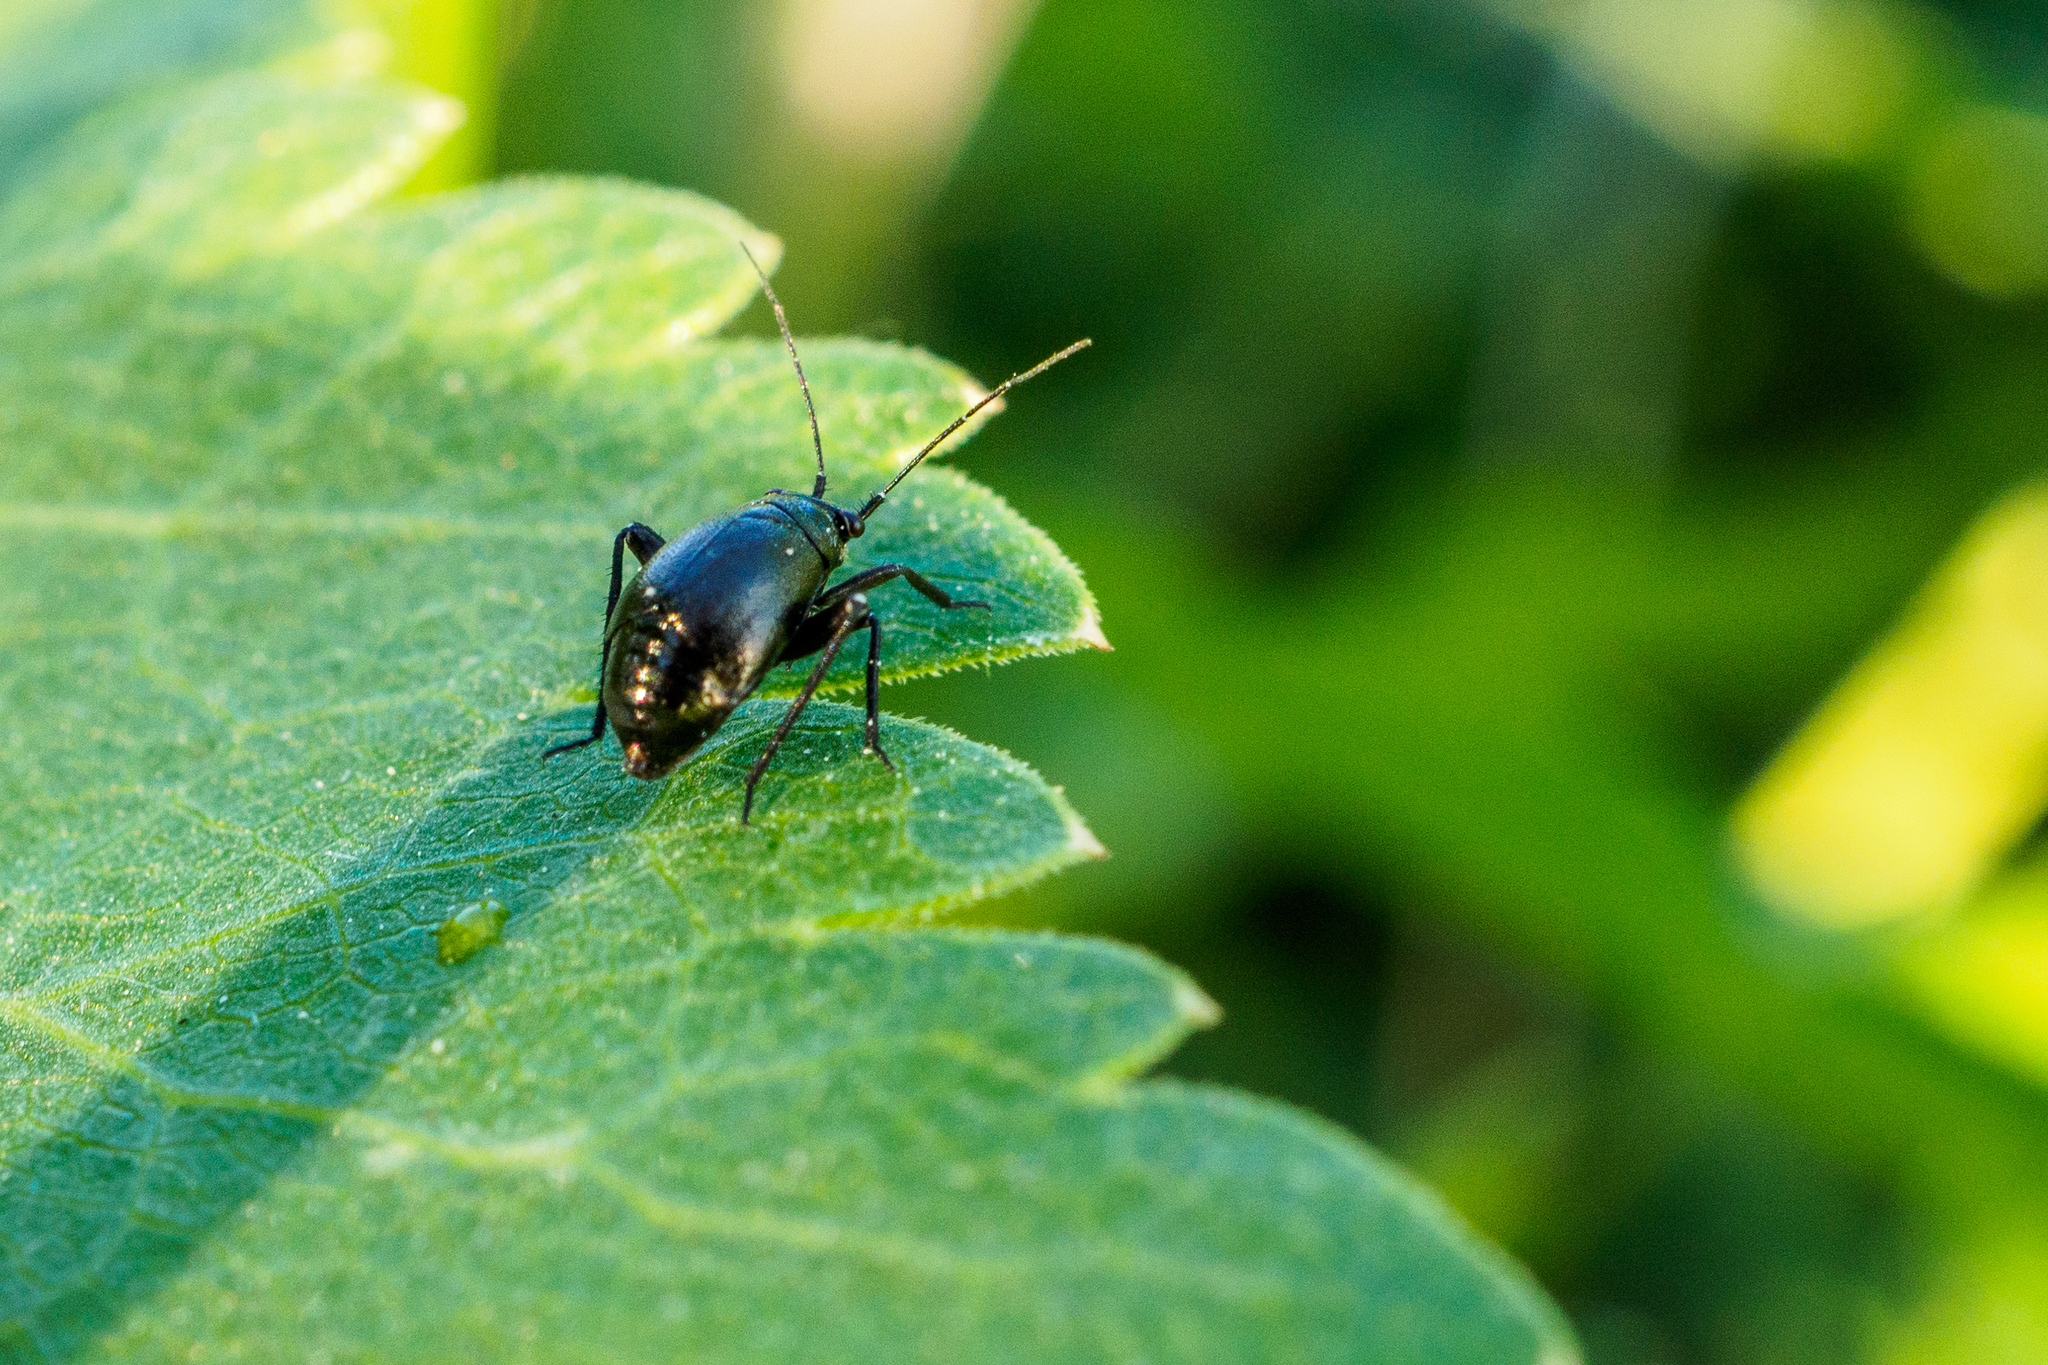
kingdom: Animalia
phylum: Arthropoda
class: Insecta
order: Hemiptera
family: Miridae
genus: Euryopicoris
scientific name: Euryopicoris nitidus
